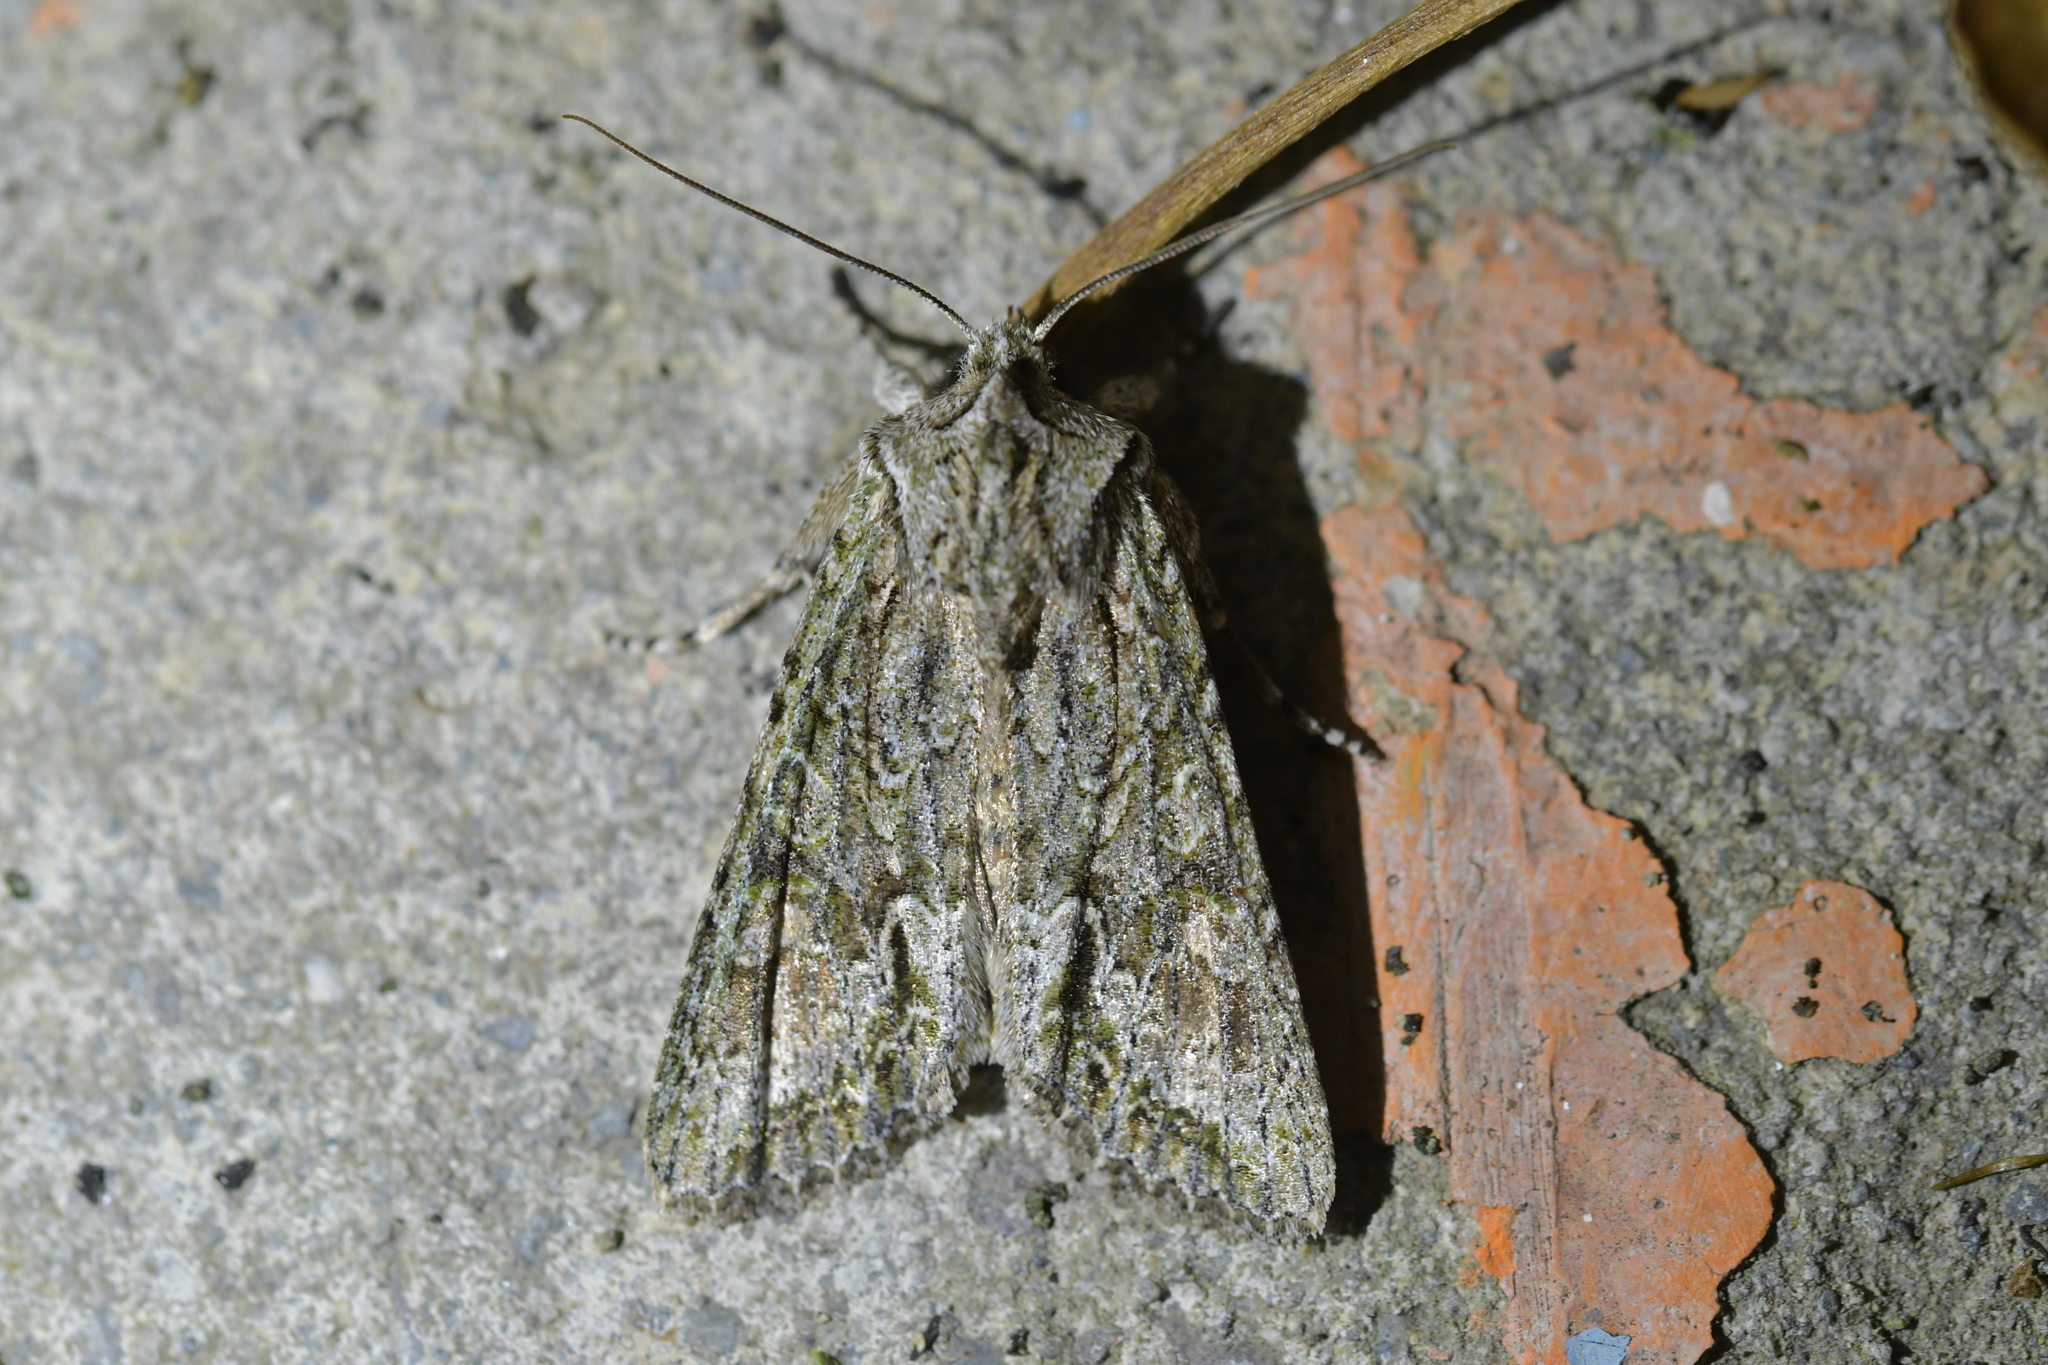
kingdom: Animalia
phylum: Arthropoda
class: Insecta
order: Lepidoptera
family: Noctuidae
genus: Ichneutica
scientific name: Ichneutica mutans
